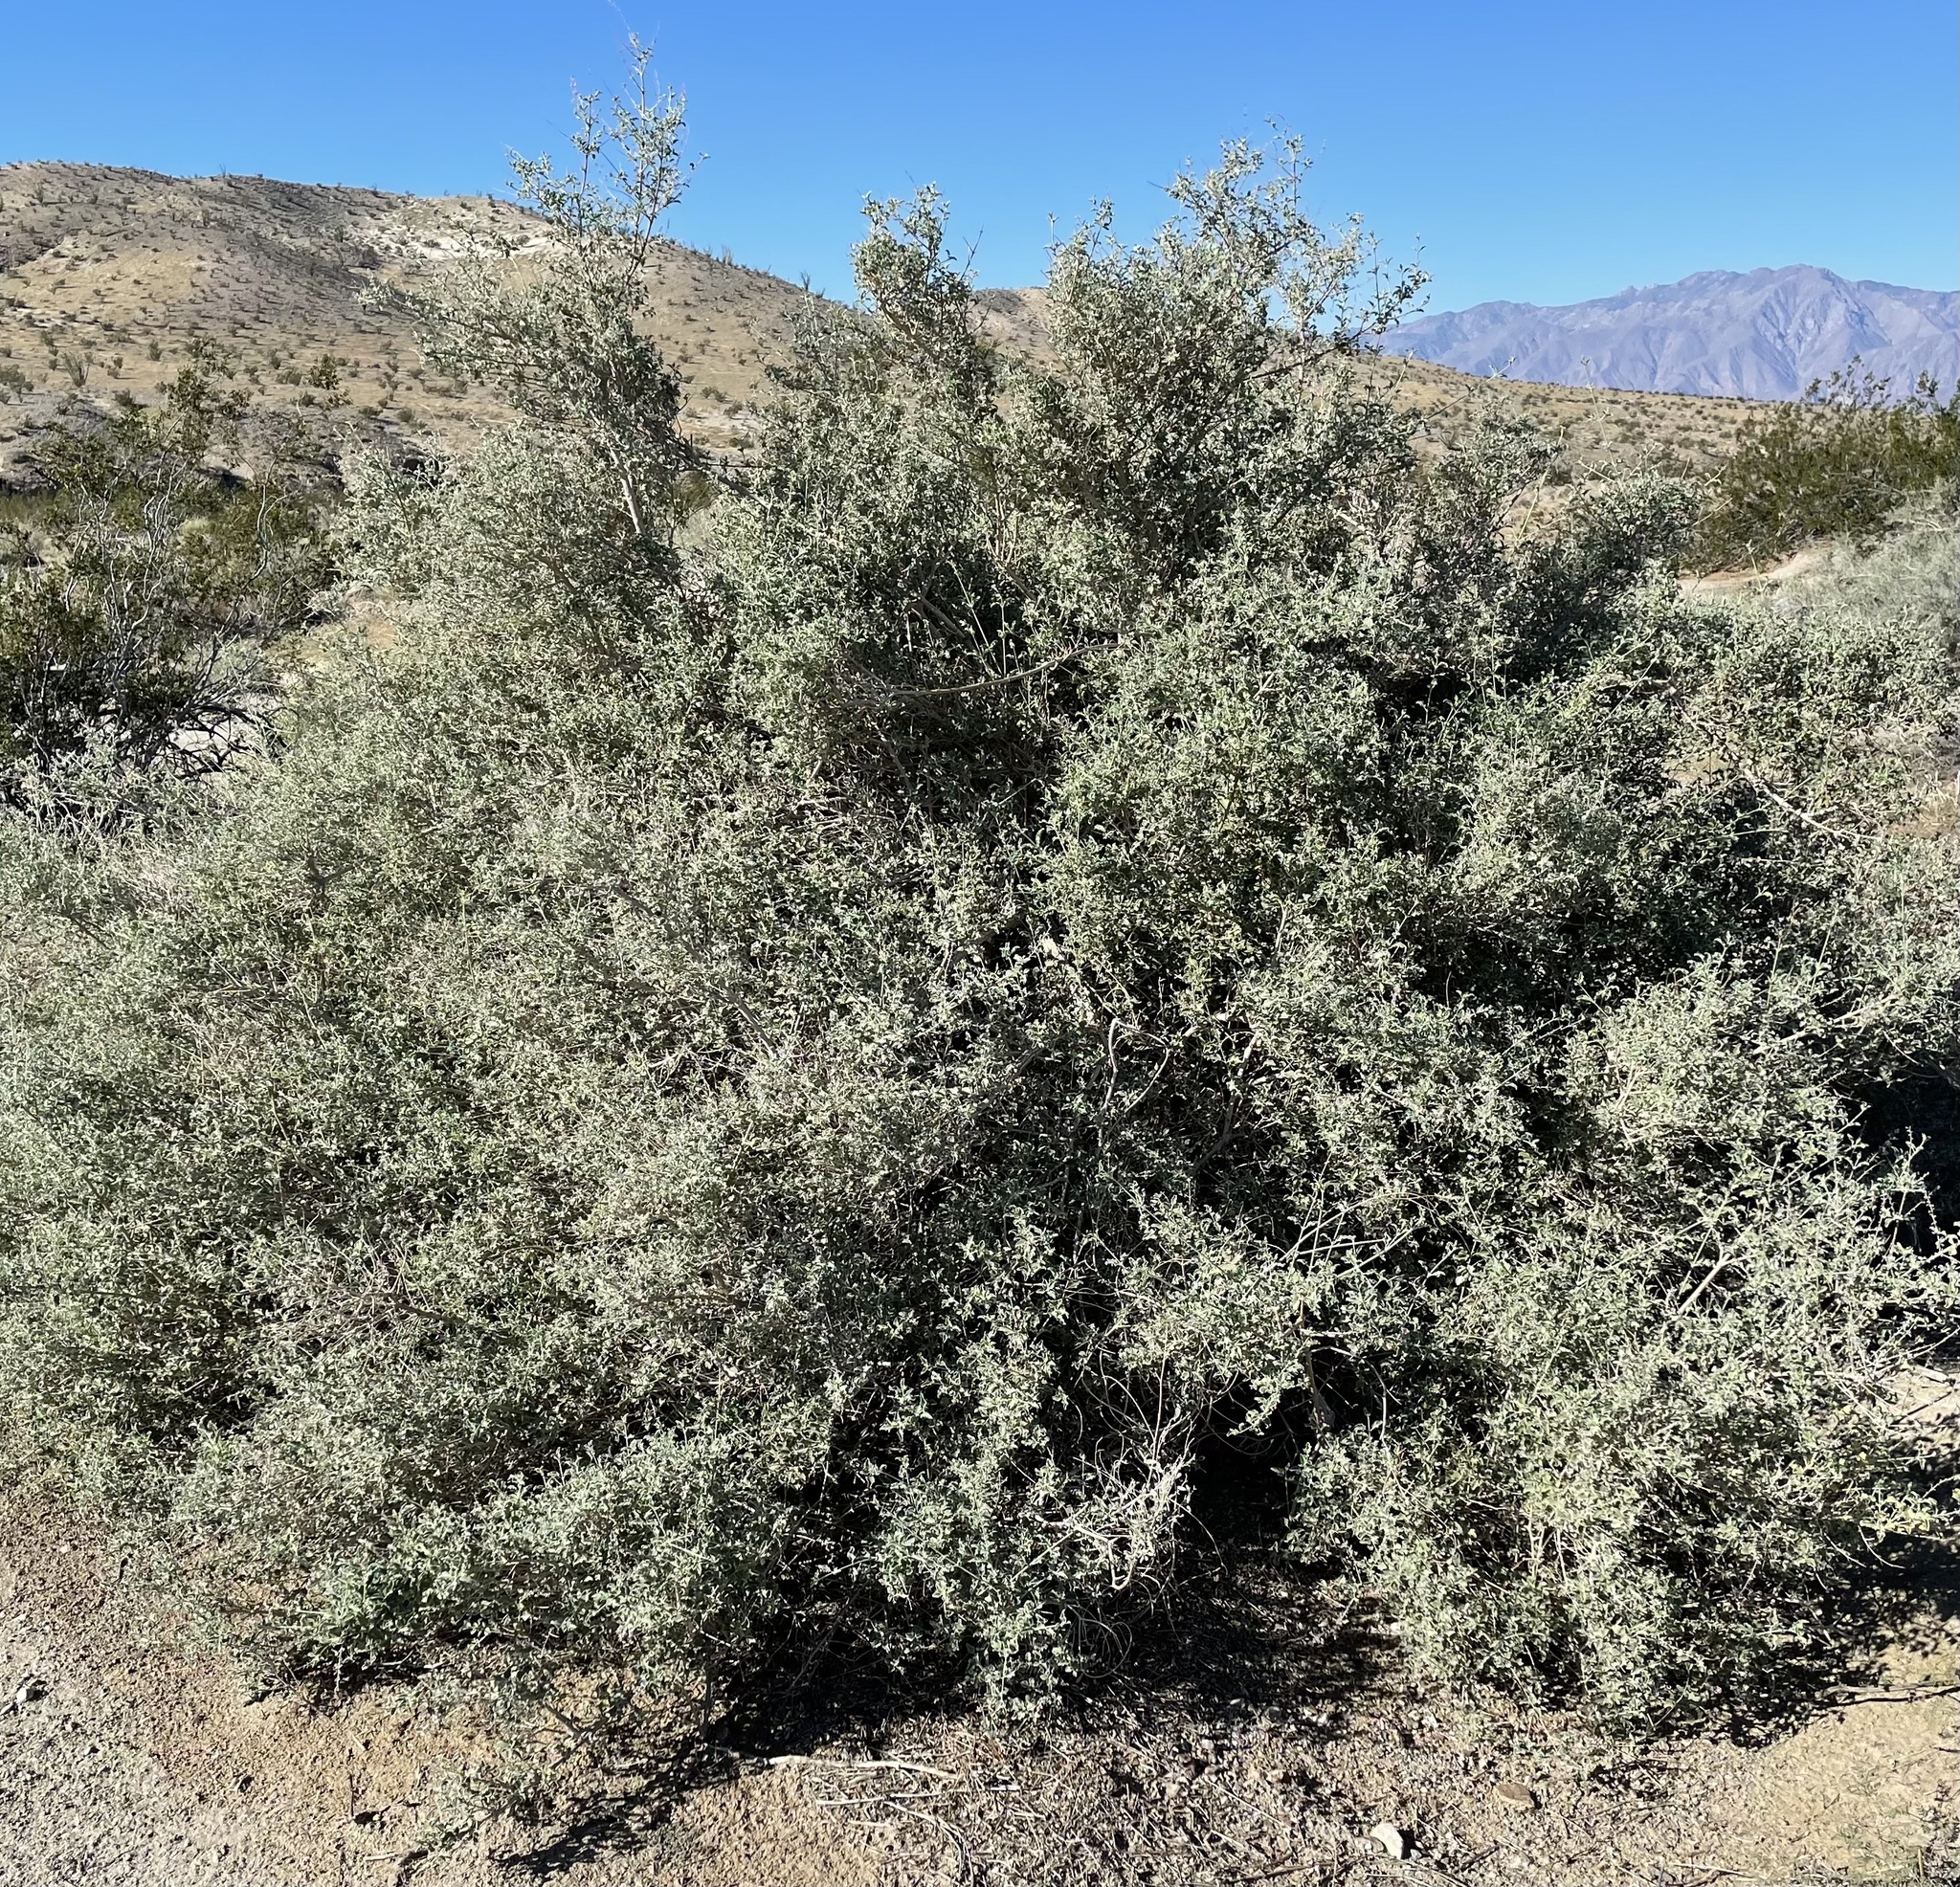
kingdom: Plantae
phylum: Tracheophyta
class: Magnoliopsida
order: Lamiales
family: Lamiaceae
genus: Condea
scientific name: Condea emoryi
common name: Chia
